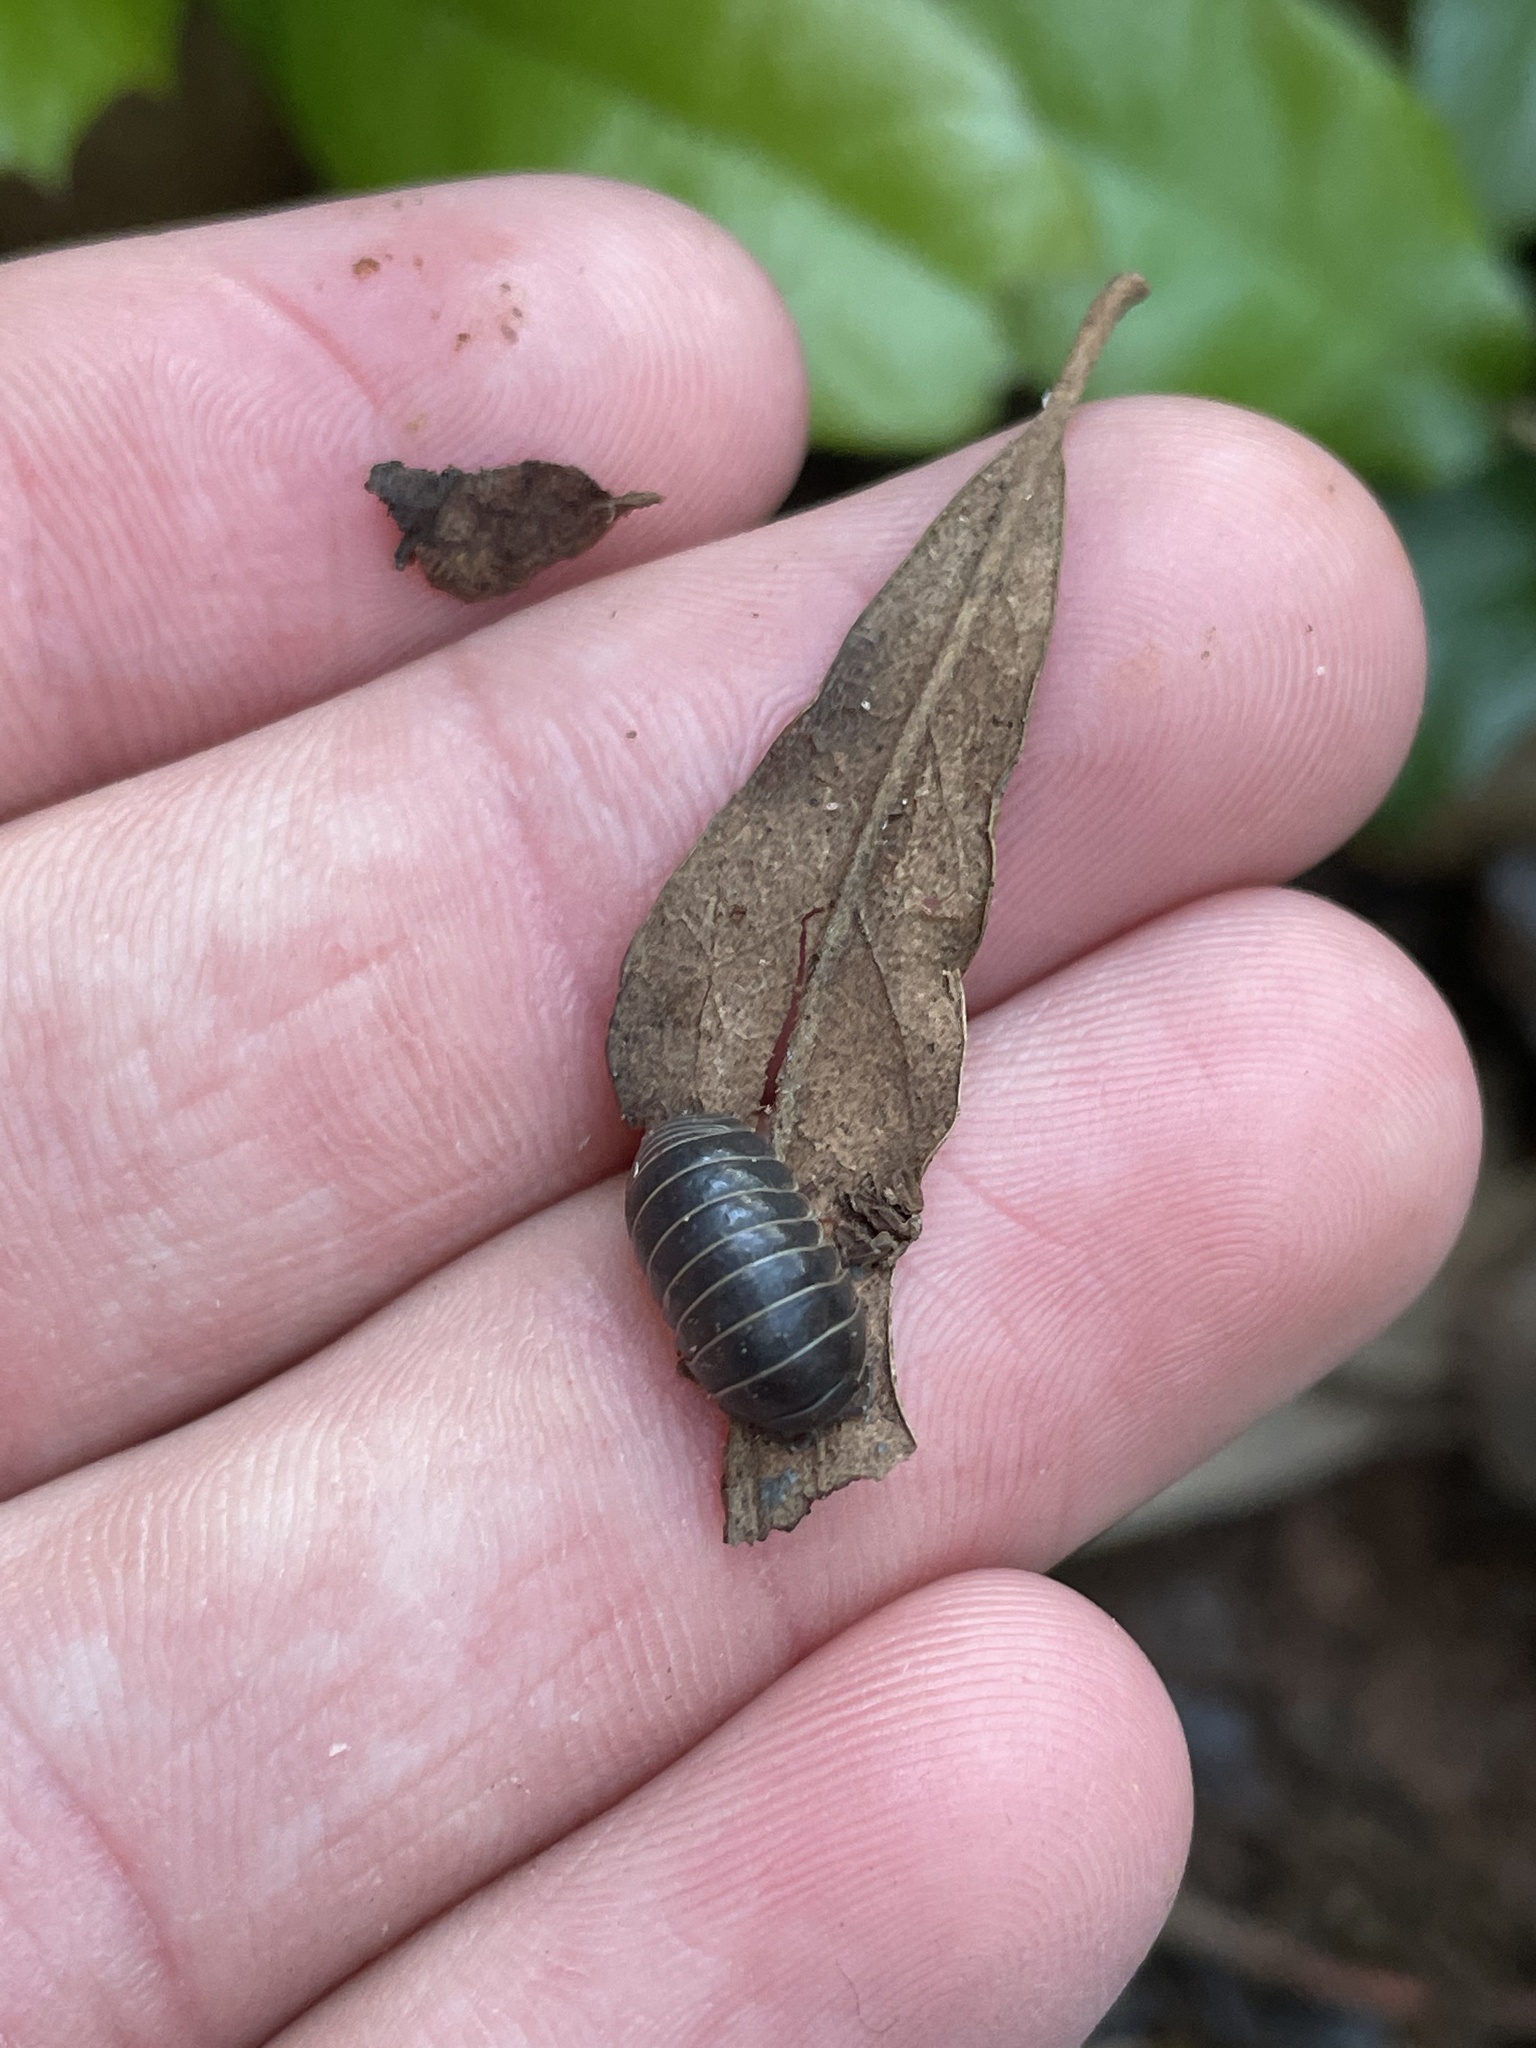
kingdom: Animalia
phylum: Arthropoda
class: Malacostraca
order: Isopoda
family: Armadillidiidae
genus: Armadillidium
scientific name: Armadillidium vulgare
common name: Common pill woodlouse
